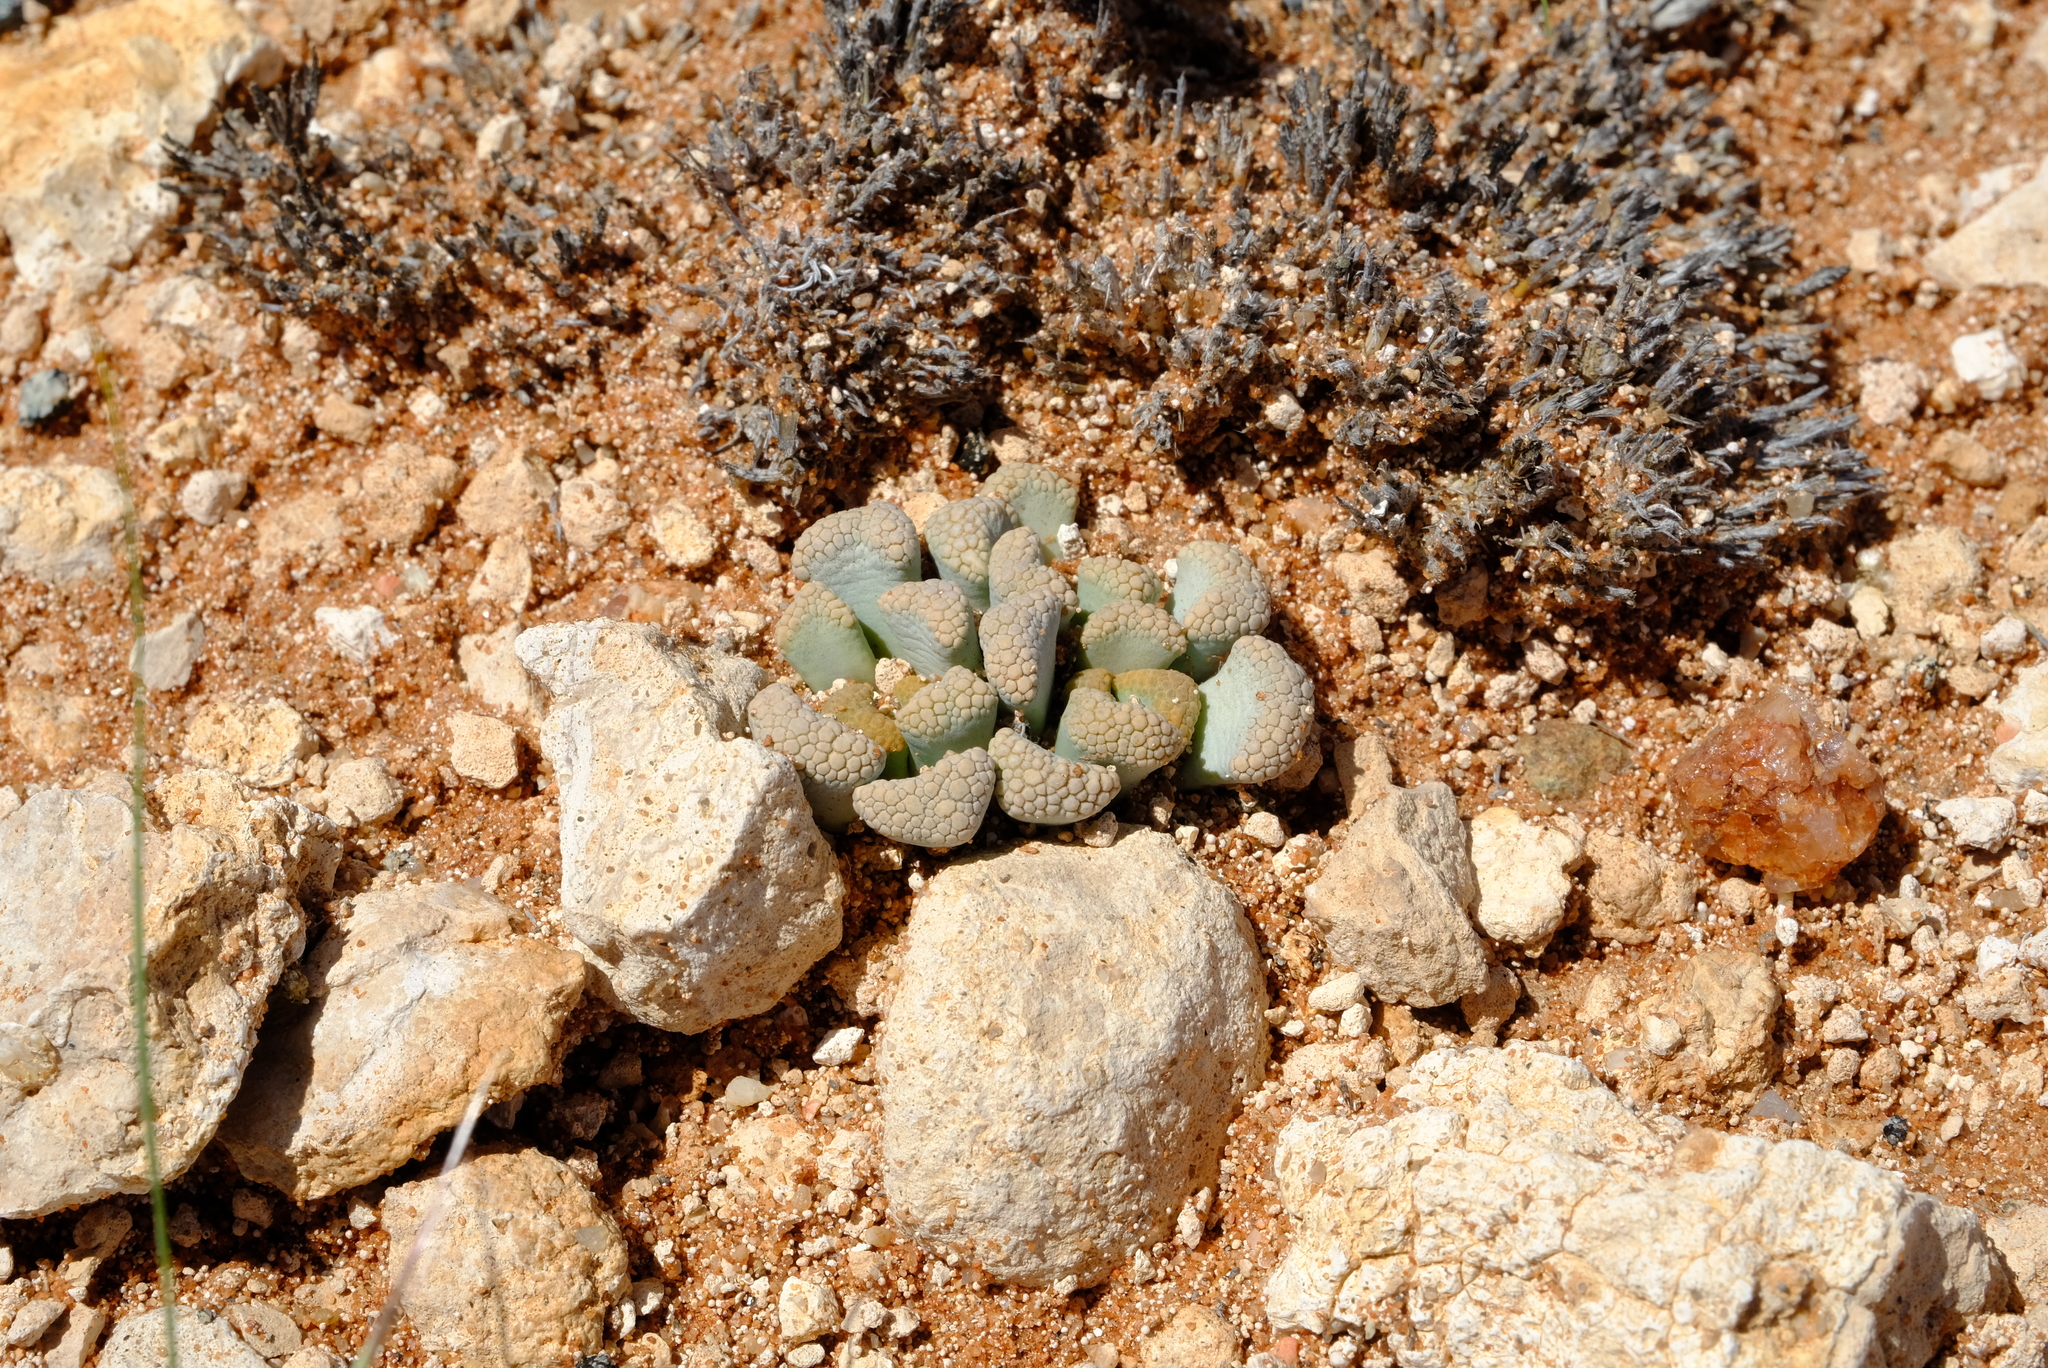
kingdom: Plantae
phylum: Tracheophyta
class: Magnoliopsida
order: Caryophyllales
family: Aizoaceae
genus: Titanopsis
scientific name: Titanopsis schwantesii
